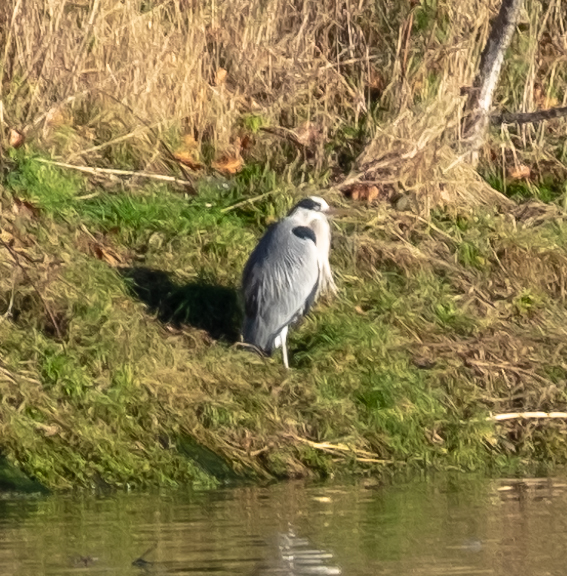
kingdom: Animalia
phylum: Chordata
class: Aves
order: Pelecaniformes
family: Ardeidae
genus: Ardea
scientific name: Ardea cinerea
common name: Grey heron
